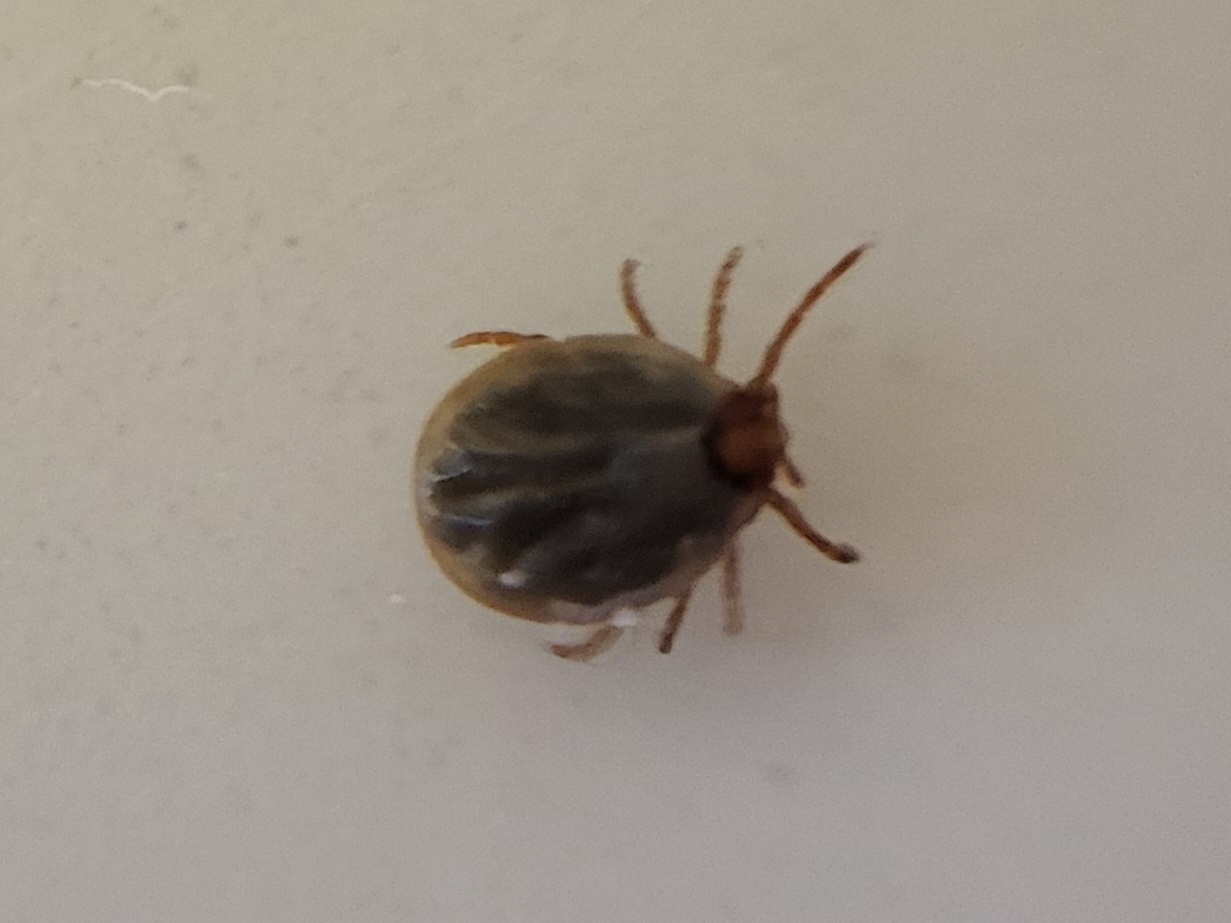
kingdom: Animalia
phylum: Arthropoda
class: Arachnida
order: Ixodida
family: Ixodidae
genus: Amblyomma
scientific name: Amblyomma americanum
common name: Lone star tick
